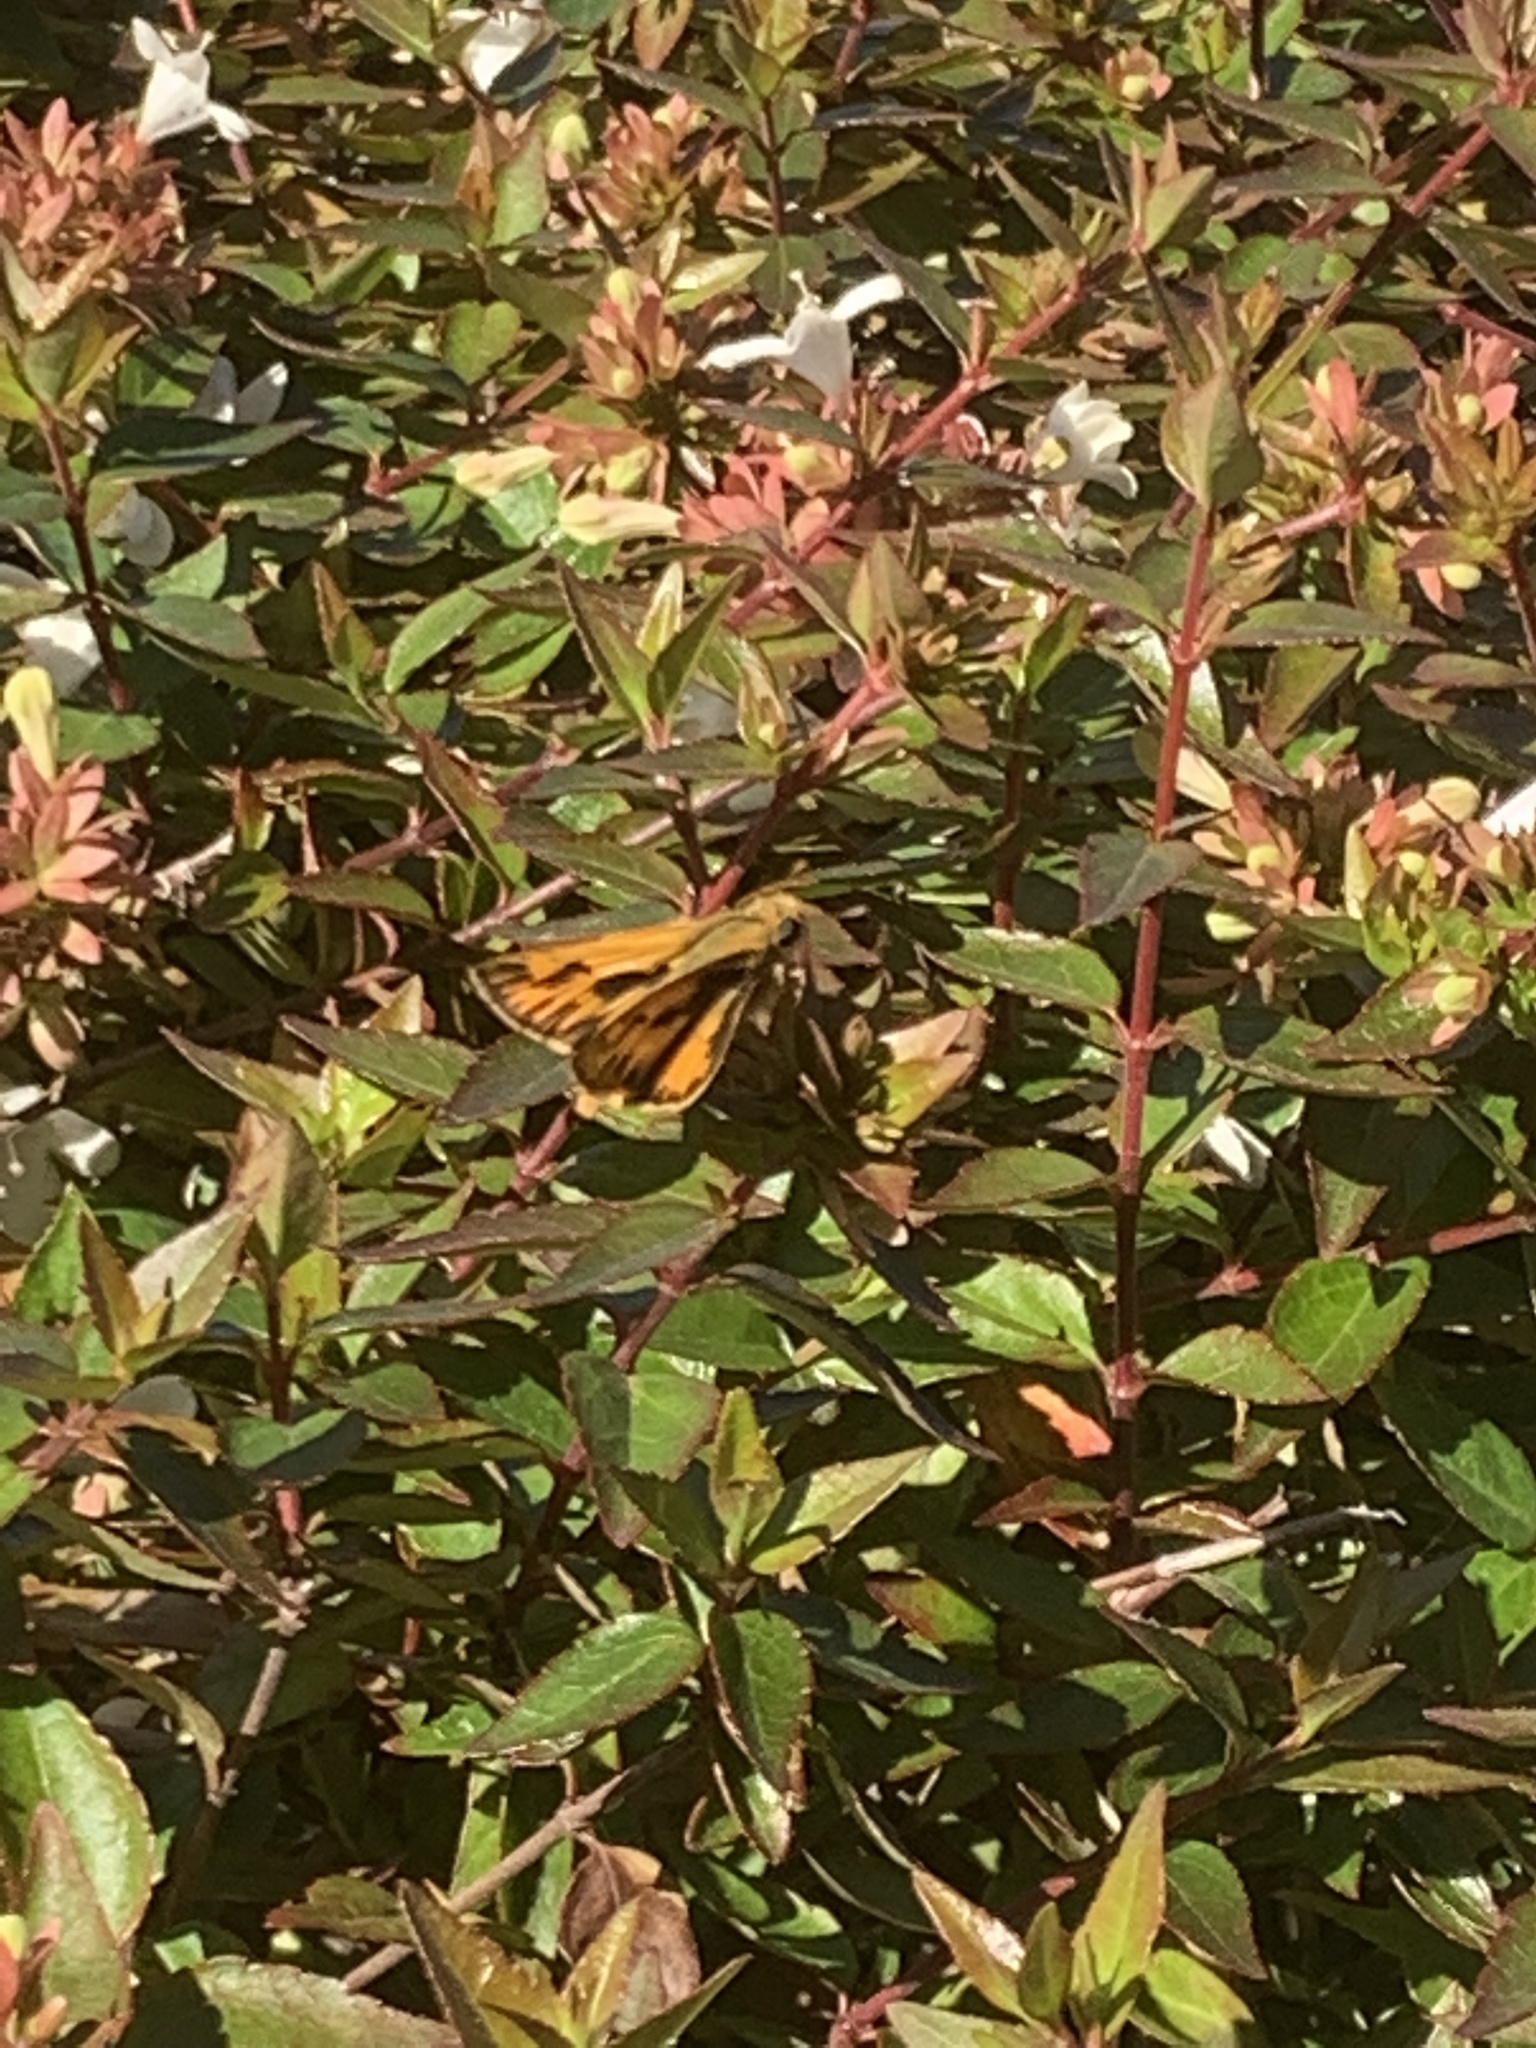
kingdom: Animalia
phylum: Arthropoda
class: Insecta
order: Lepidoptera
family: Hesperiidae
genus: Hylephila
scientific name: Hylephila phyleus
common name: Fiery skipper
